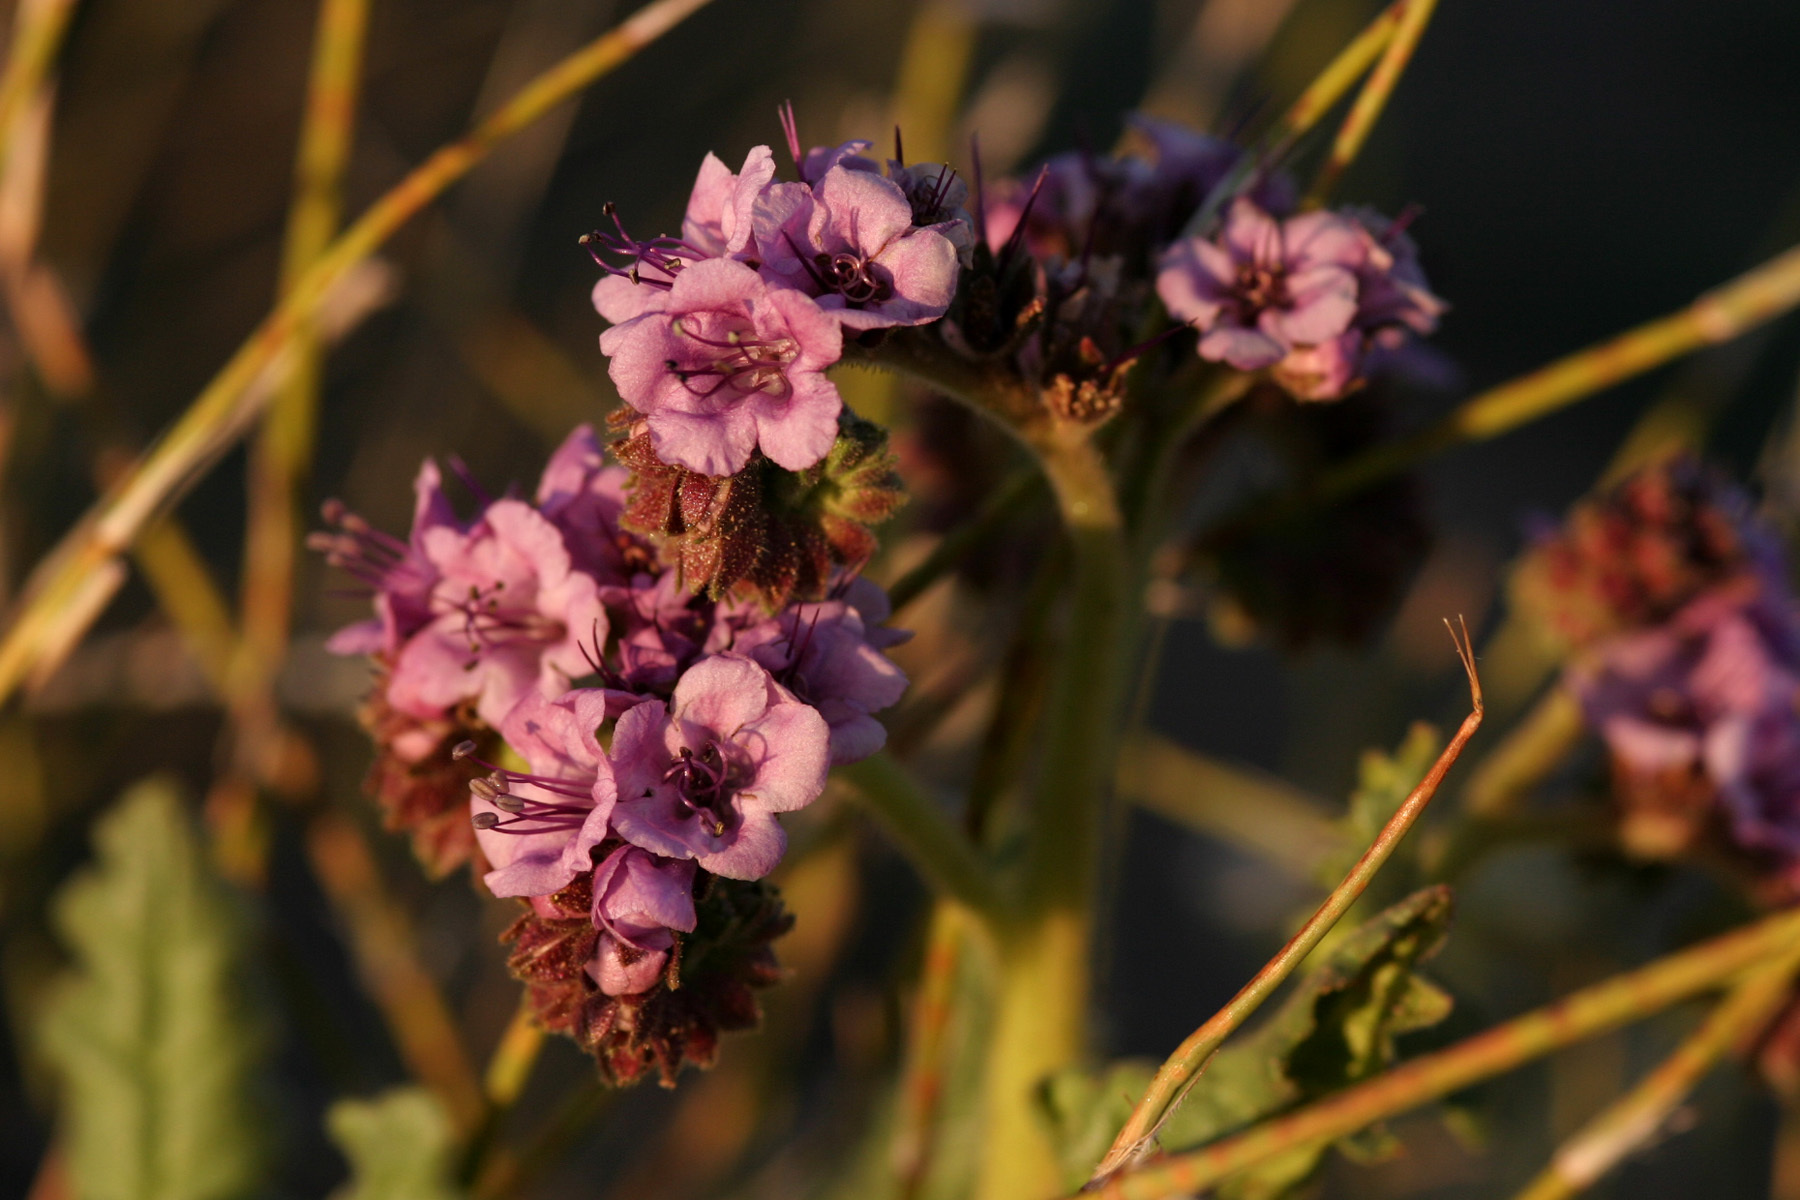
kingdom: Plantae
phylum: Tracheophyta
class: Magnoliopsida
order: Boraginales
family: Hydrophyllaceae
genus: Phacelia
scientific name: Phacelia integrifolia
